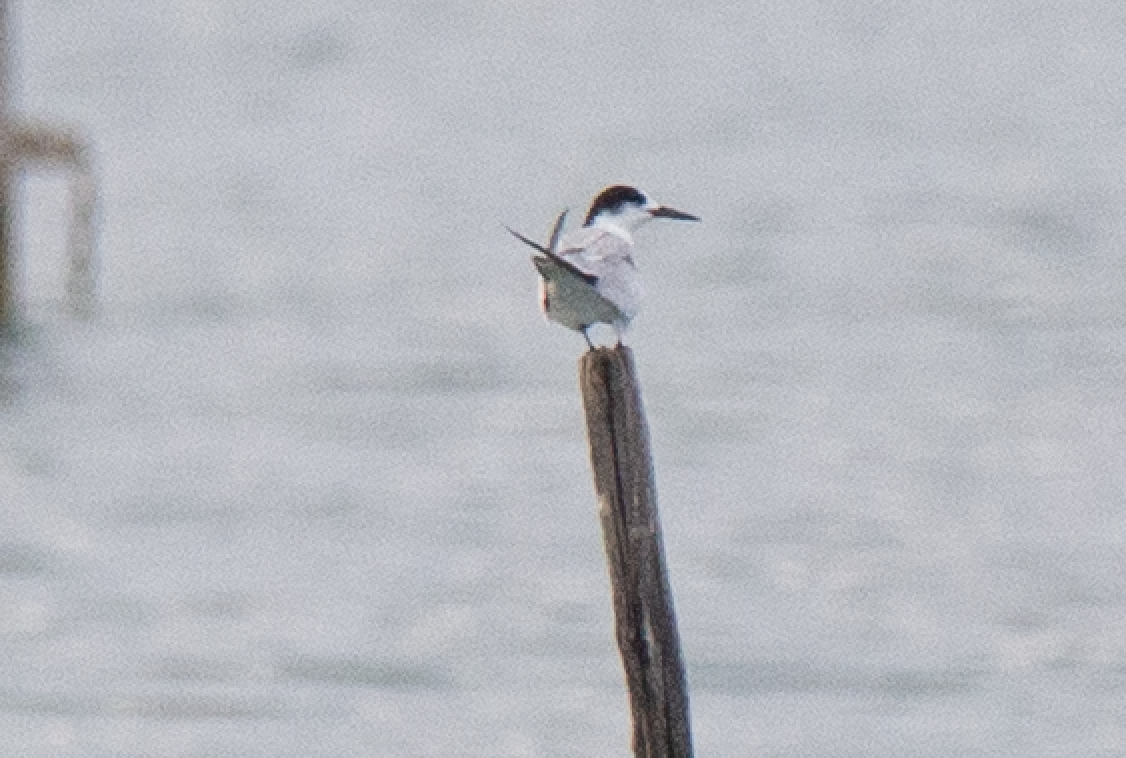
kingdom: Animalia
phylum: Chordata
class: Aves
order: Charadriiformes
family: Laridae
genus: Sterna
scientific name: Sterna hirundo
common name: Common tern
